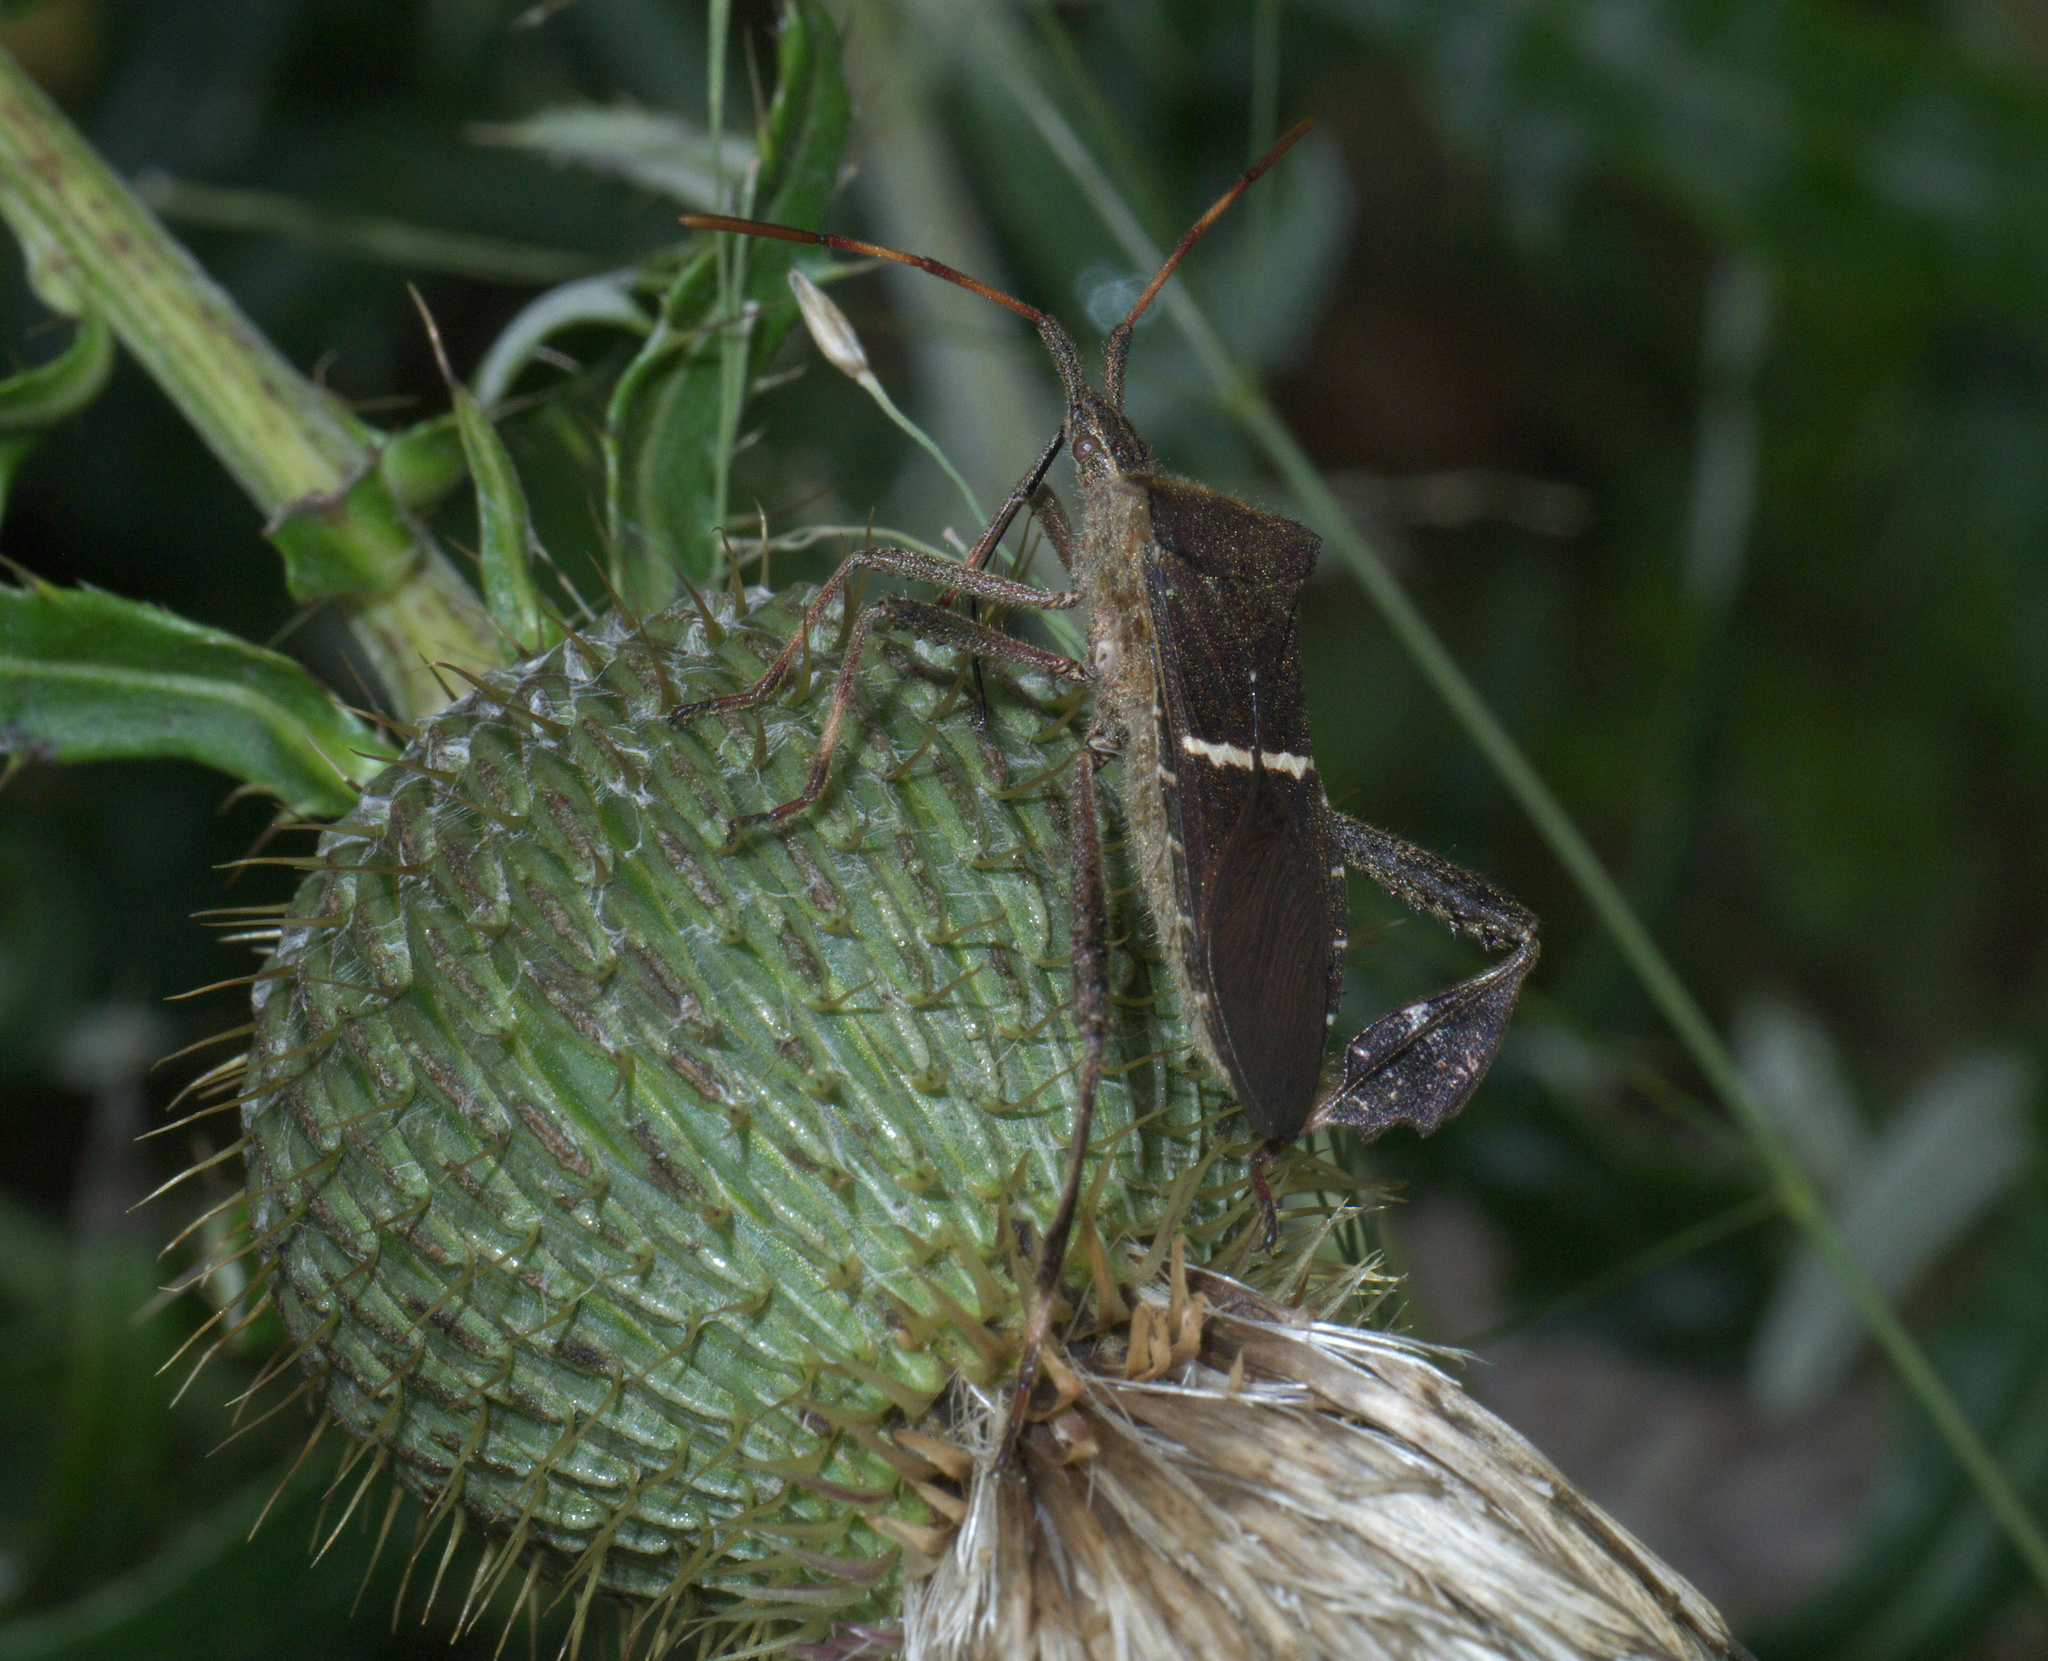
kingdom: Animalia
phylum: Arthropoda
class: Insecta
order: Hemiptera
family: Coreidae
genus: Leptoglossus
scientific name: Leptoglossus phyllopus
